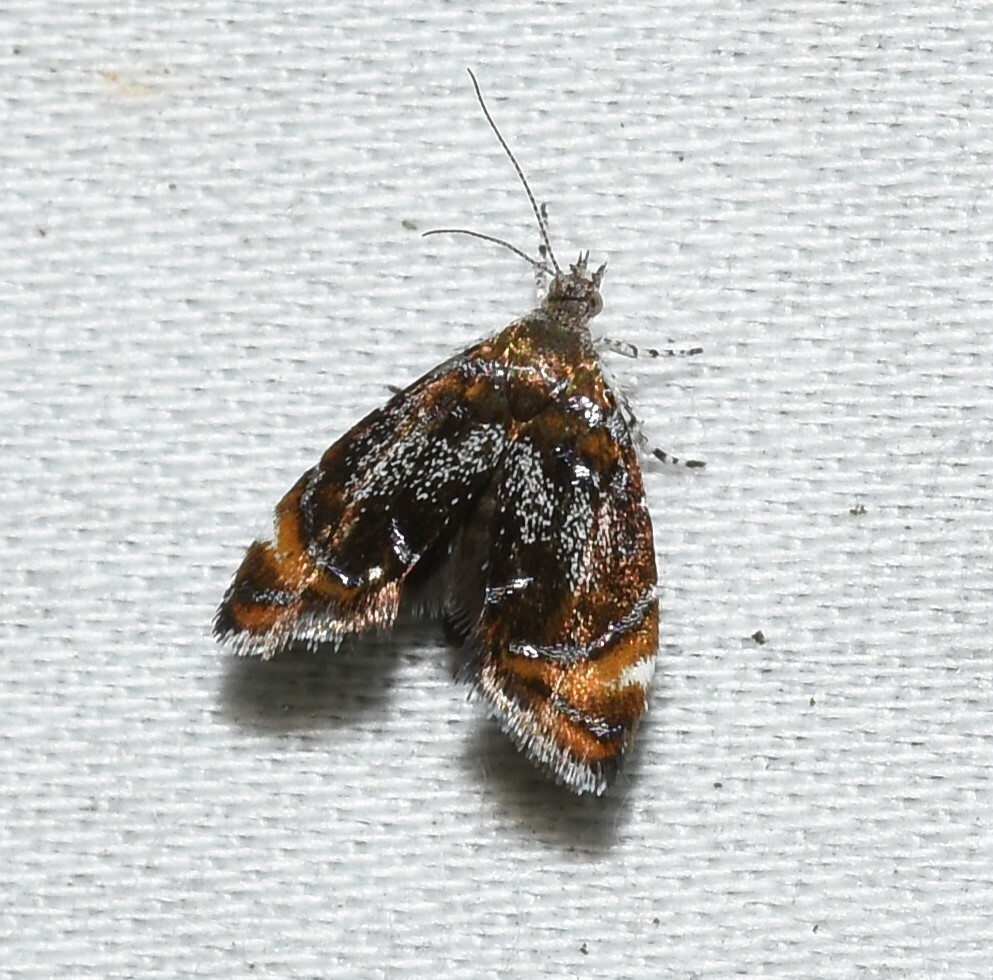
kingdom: Animalia
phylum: Arthropoda
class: Insecta
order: Lepidoptera
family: Choreutidae
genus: Prochoreutis
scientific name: Prochoreutis inflatella
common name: Skullcap skeletonizer moth
